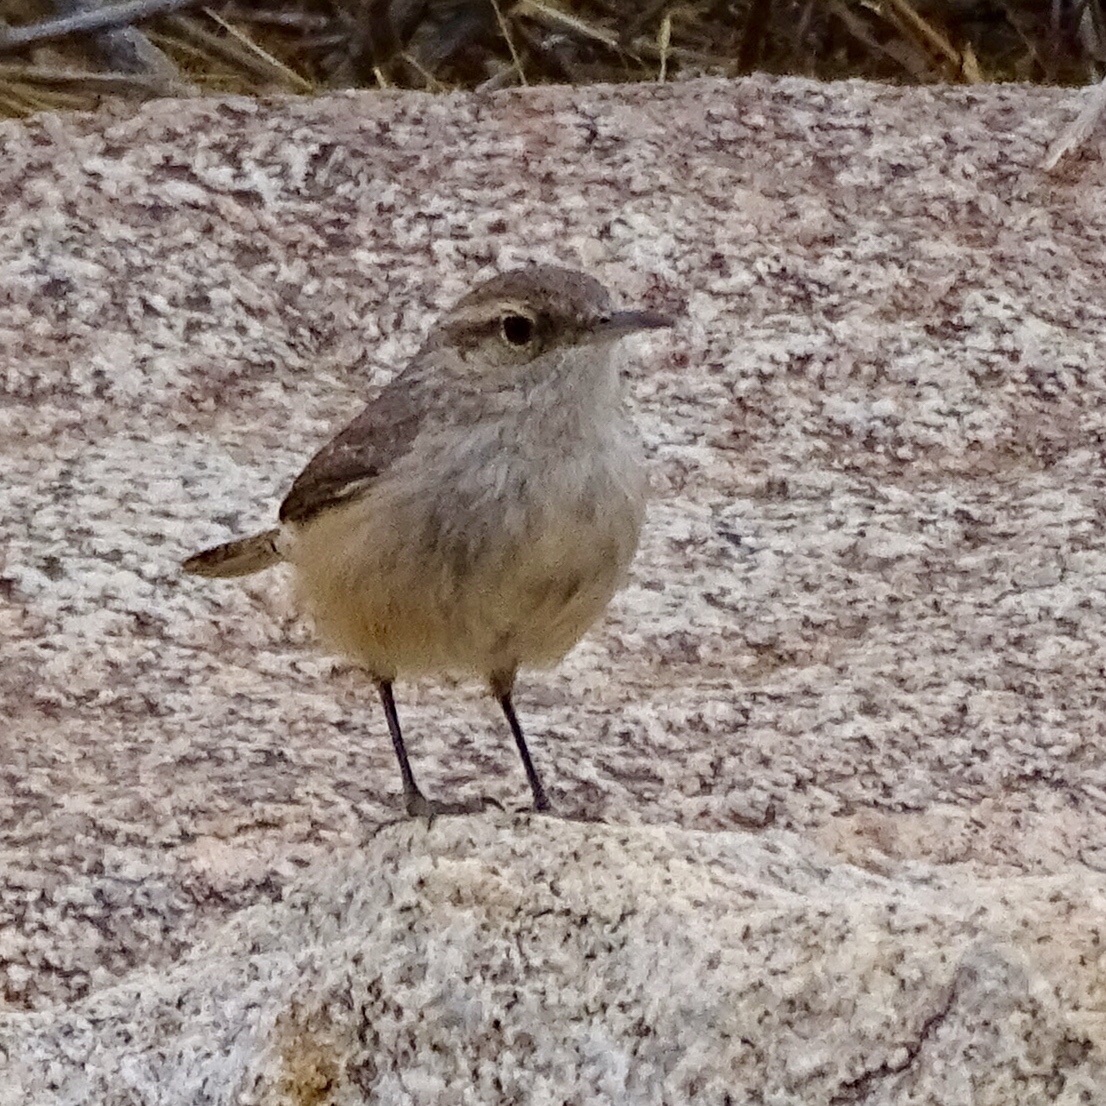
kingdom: Animalia
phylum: Chordata
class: Aves
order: Passeriformes
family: Troglodytidae
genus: Salpinctes
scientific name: Salpinctes obsoletus
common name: Rock wren
